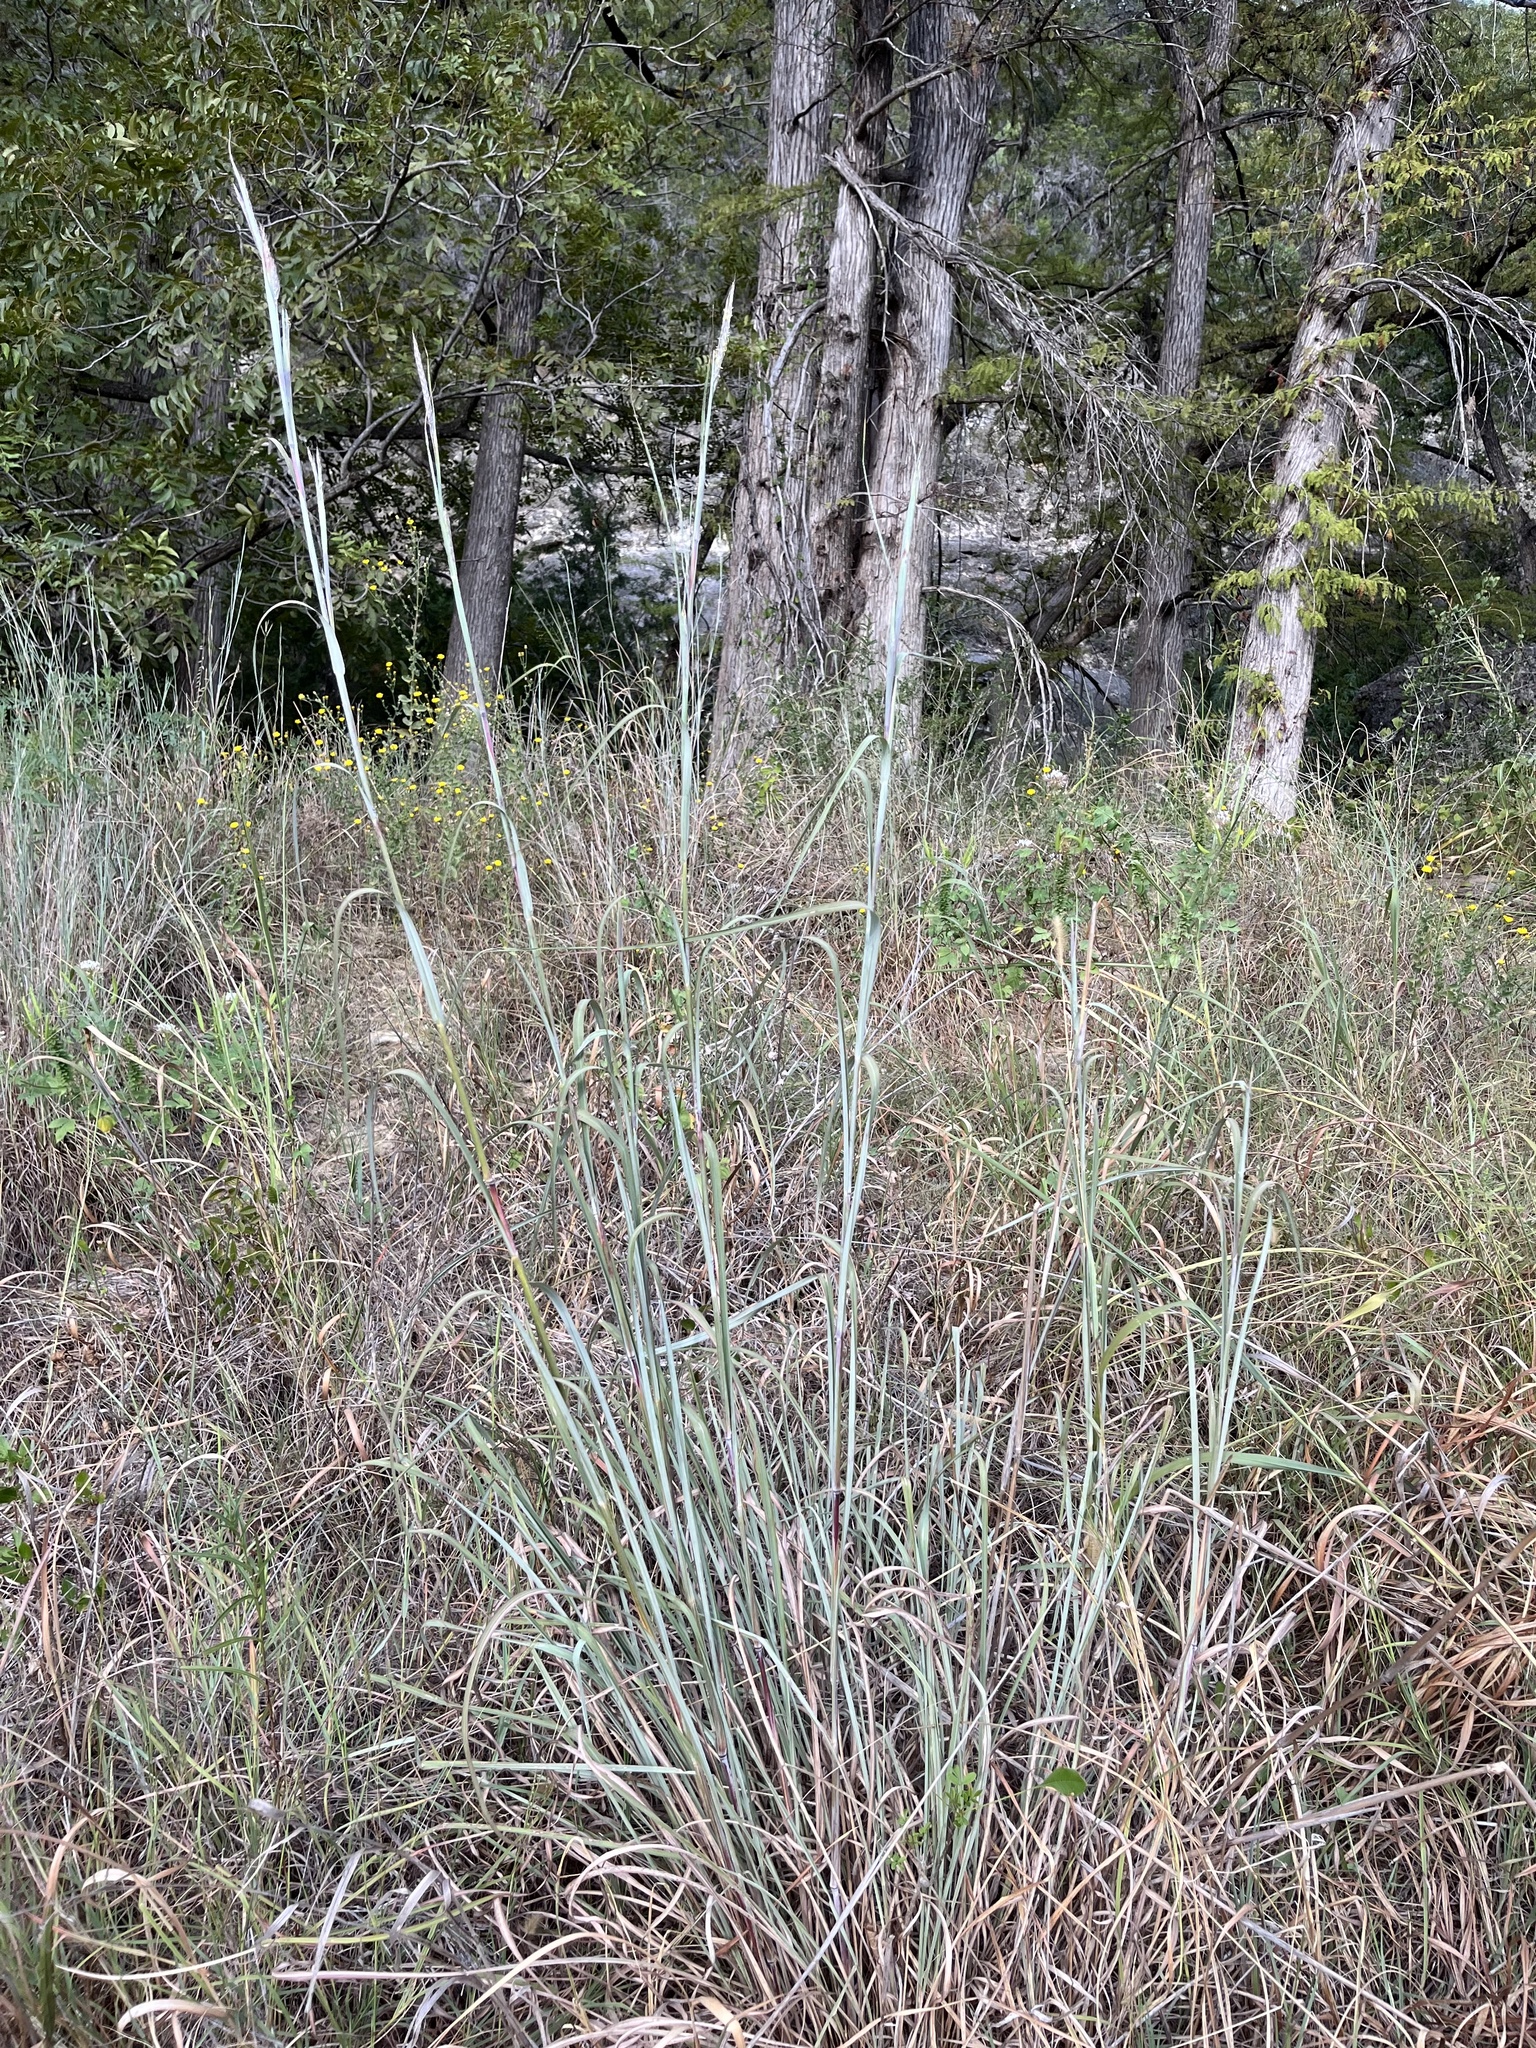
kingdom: Plantae
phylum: Tracheophyta
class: Liliopsida
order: Poales
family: Poaceae
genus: Andropogon
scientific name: Andropogon gerardi
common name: Big bluestem
